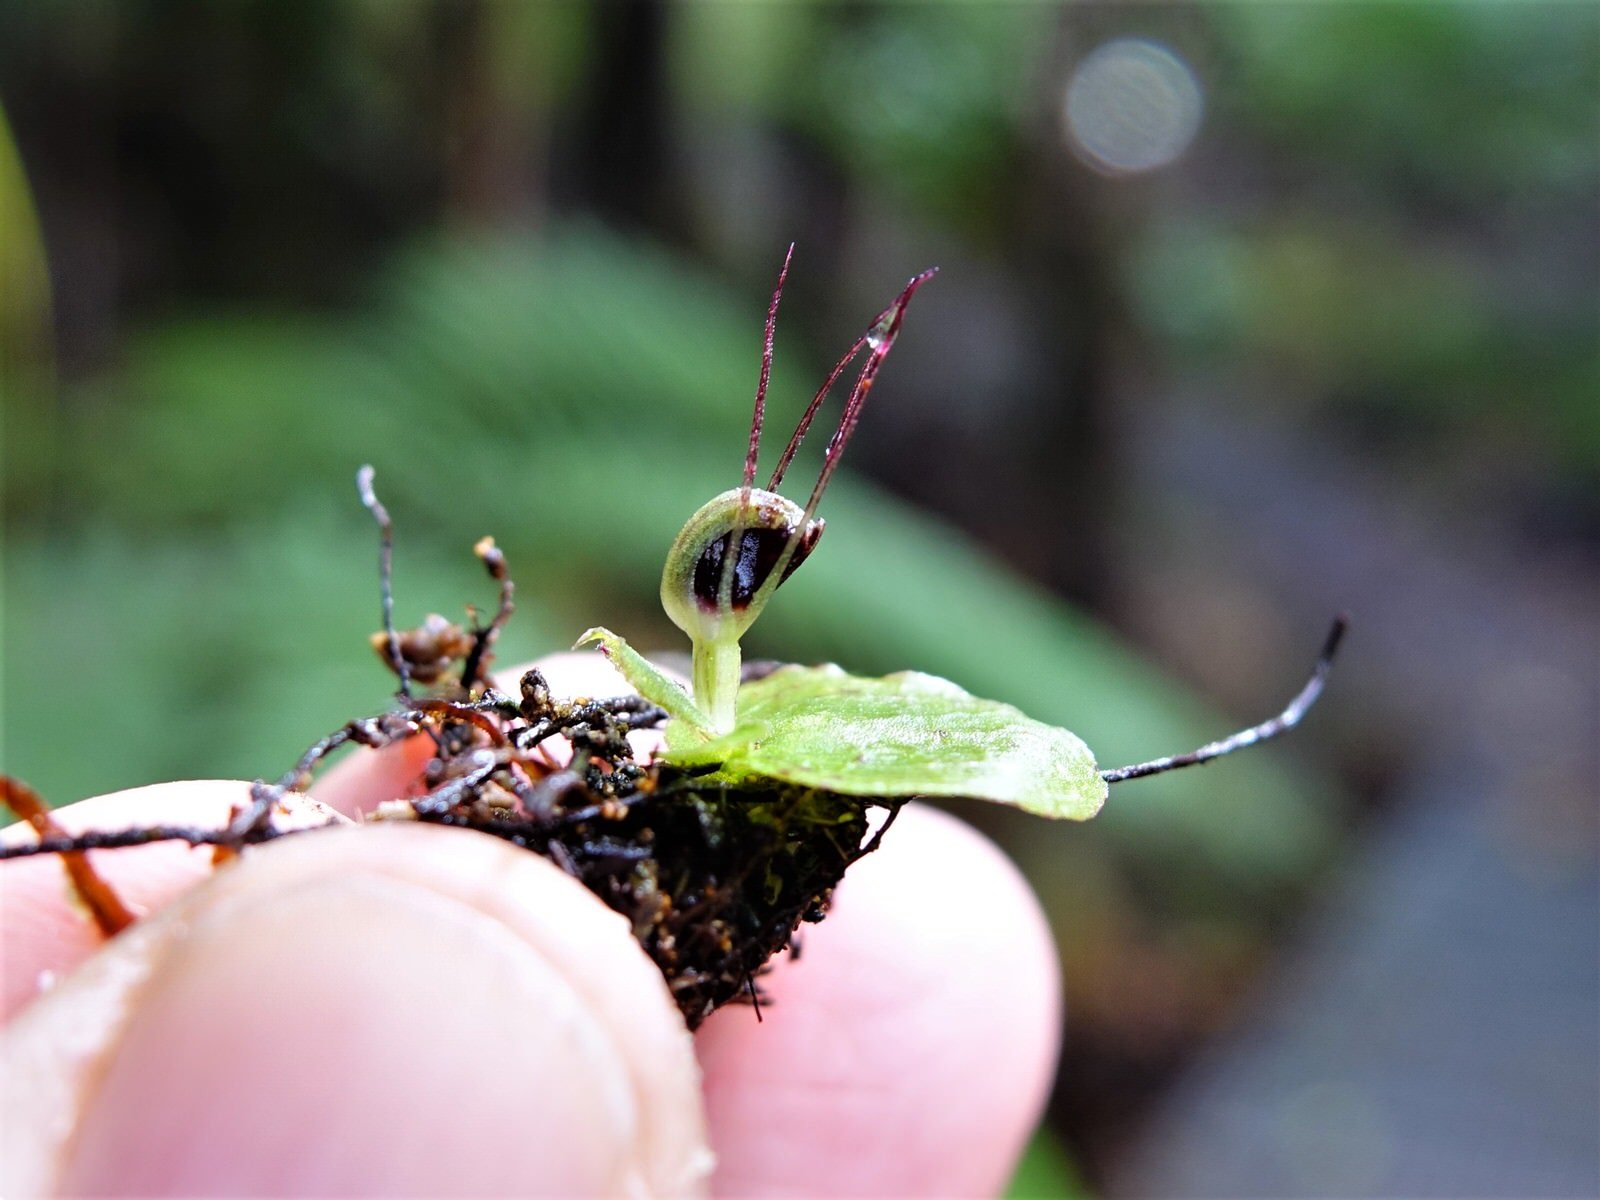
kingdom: Plantae
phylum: Tracheophyta
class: Liliopsida
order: Asparagales
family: Orchidaceae
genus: Corybas
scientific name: Corybas oblongus
